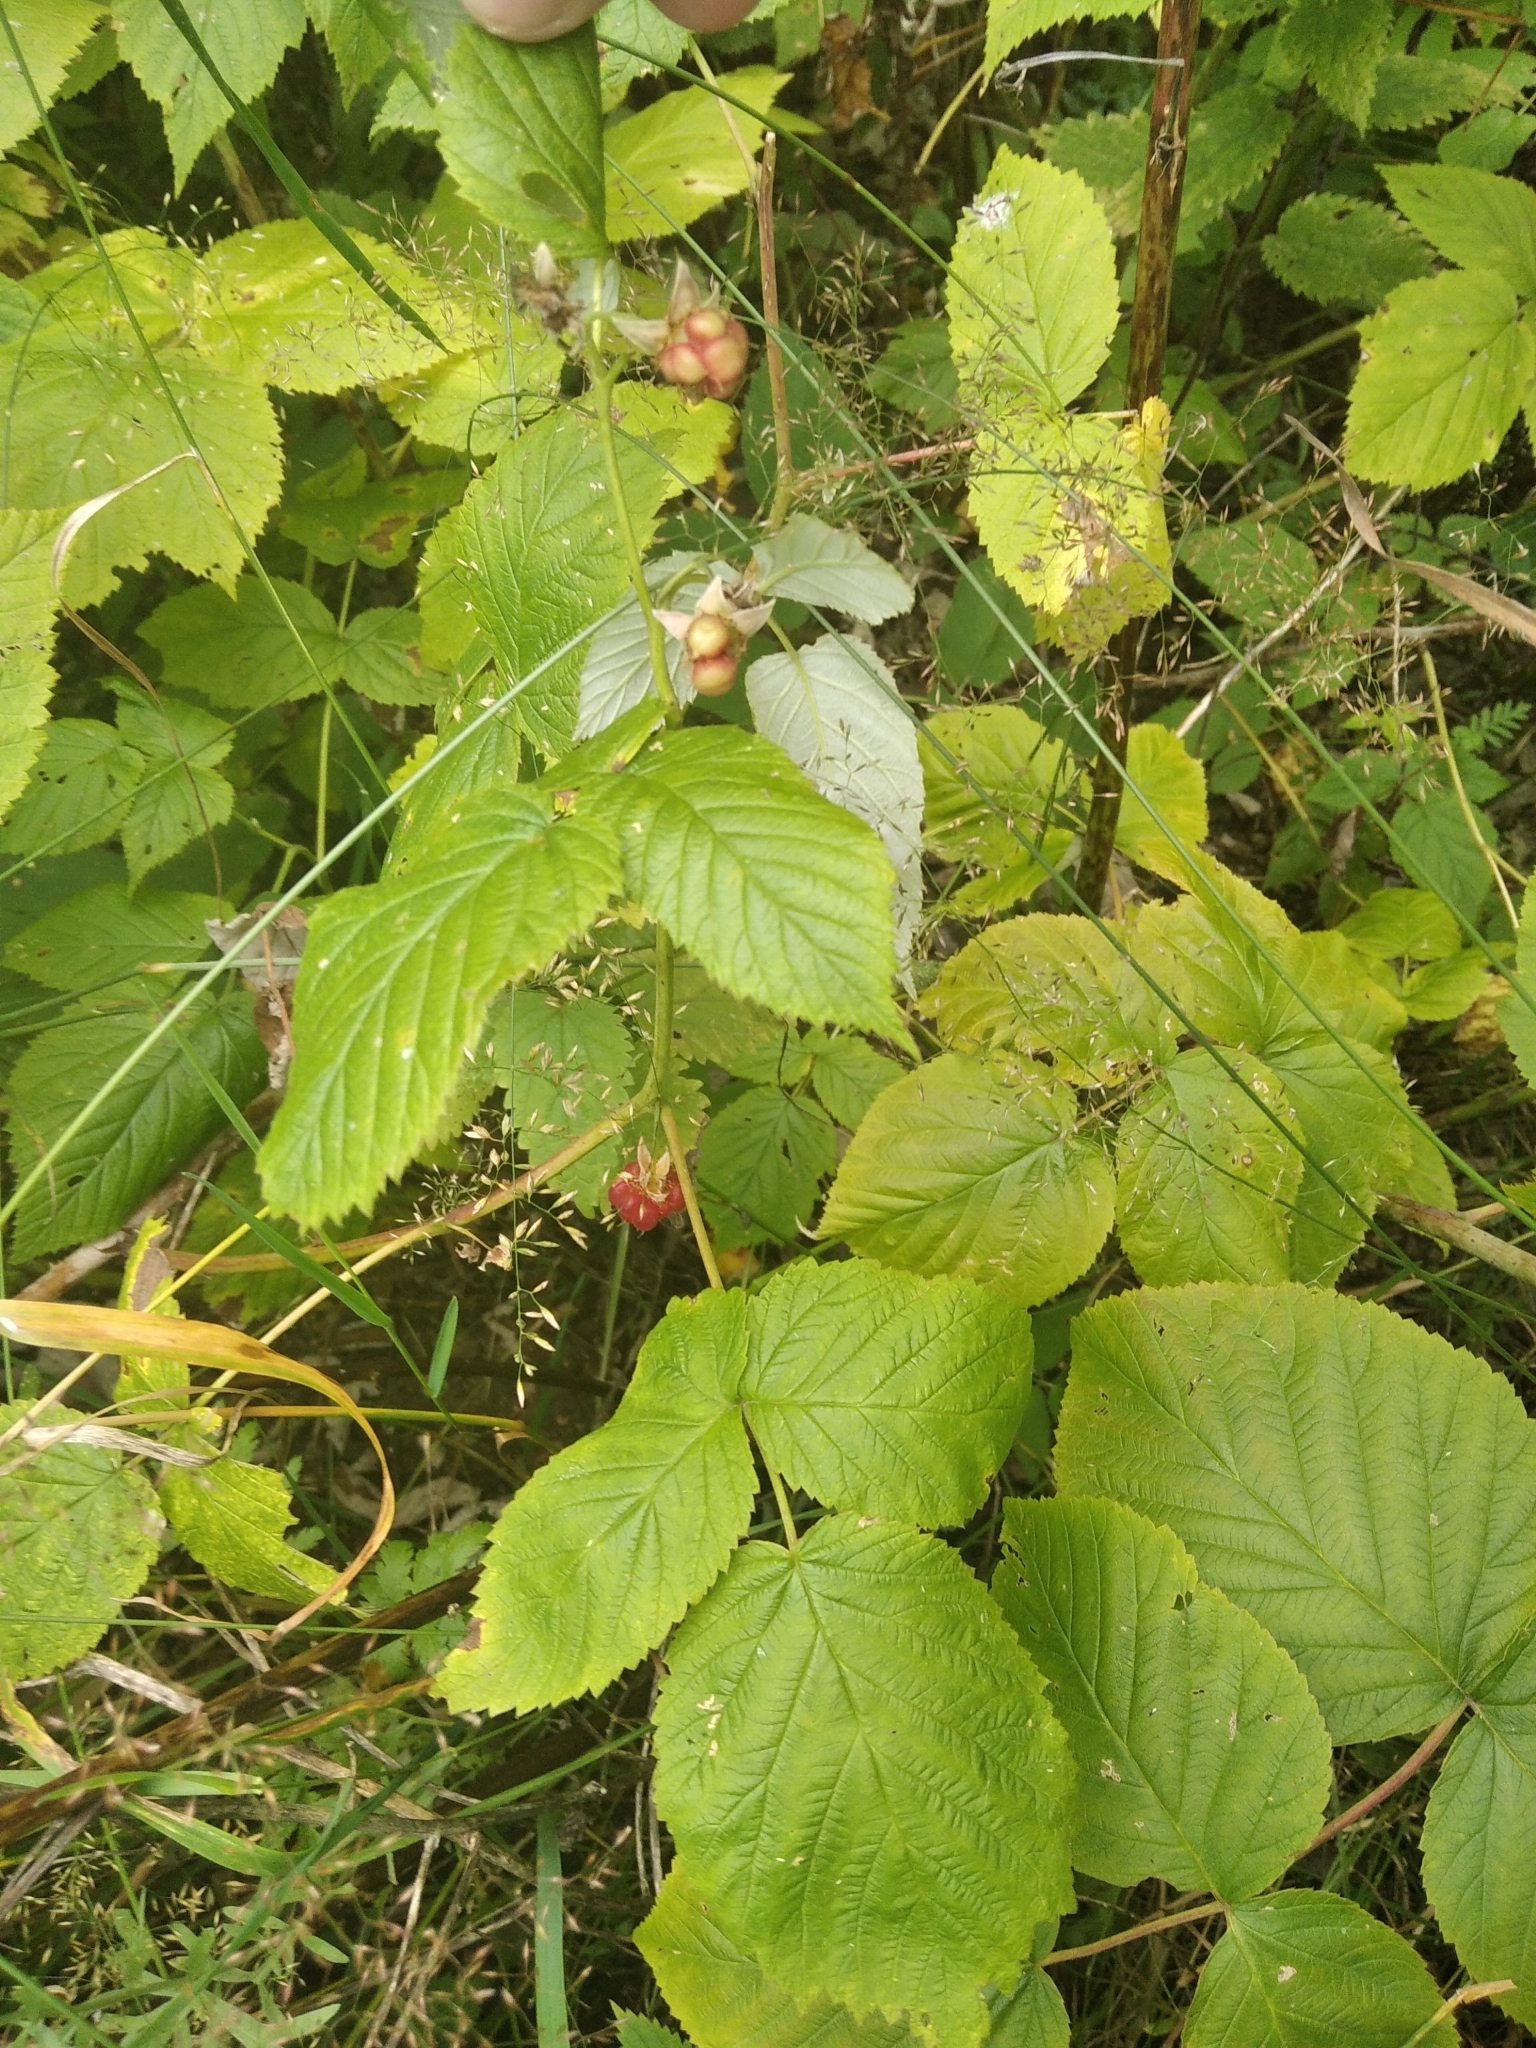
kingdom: Plantae
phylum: Tracheophyta
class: Magnoliopsida
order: Rosales
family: Rosaceae
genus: Rubus
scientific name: Rubus idaeus
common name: Raspberry
